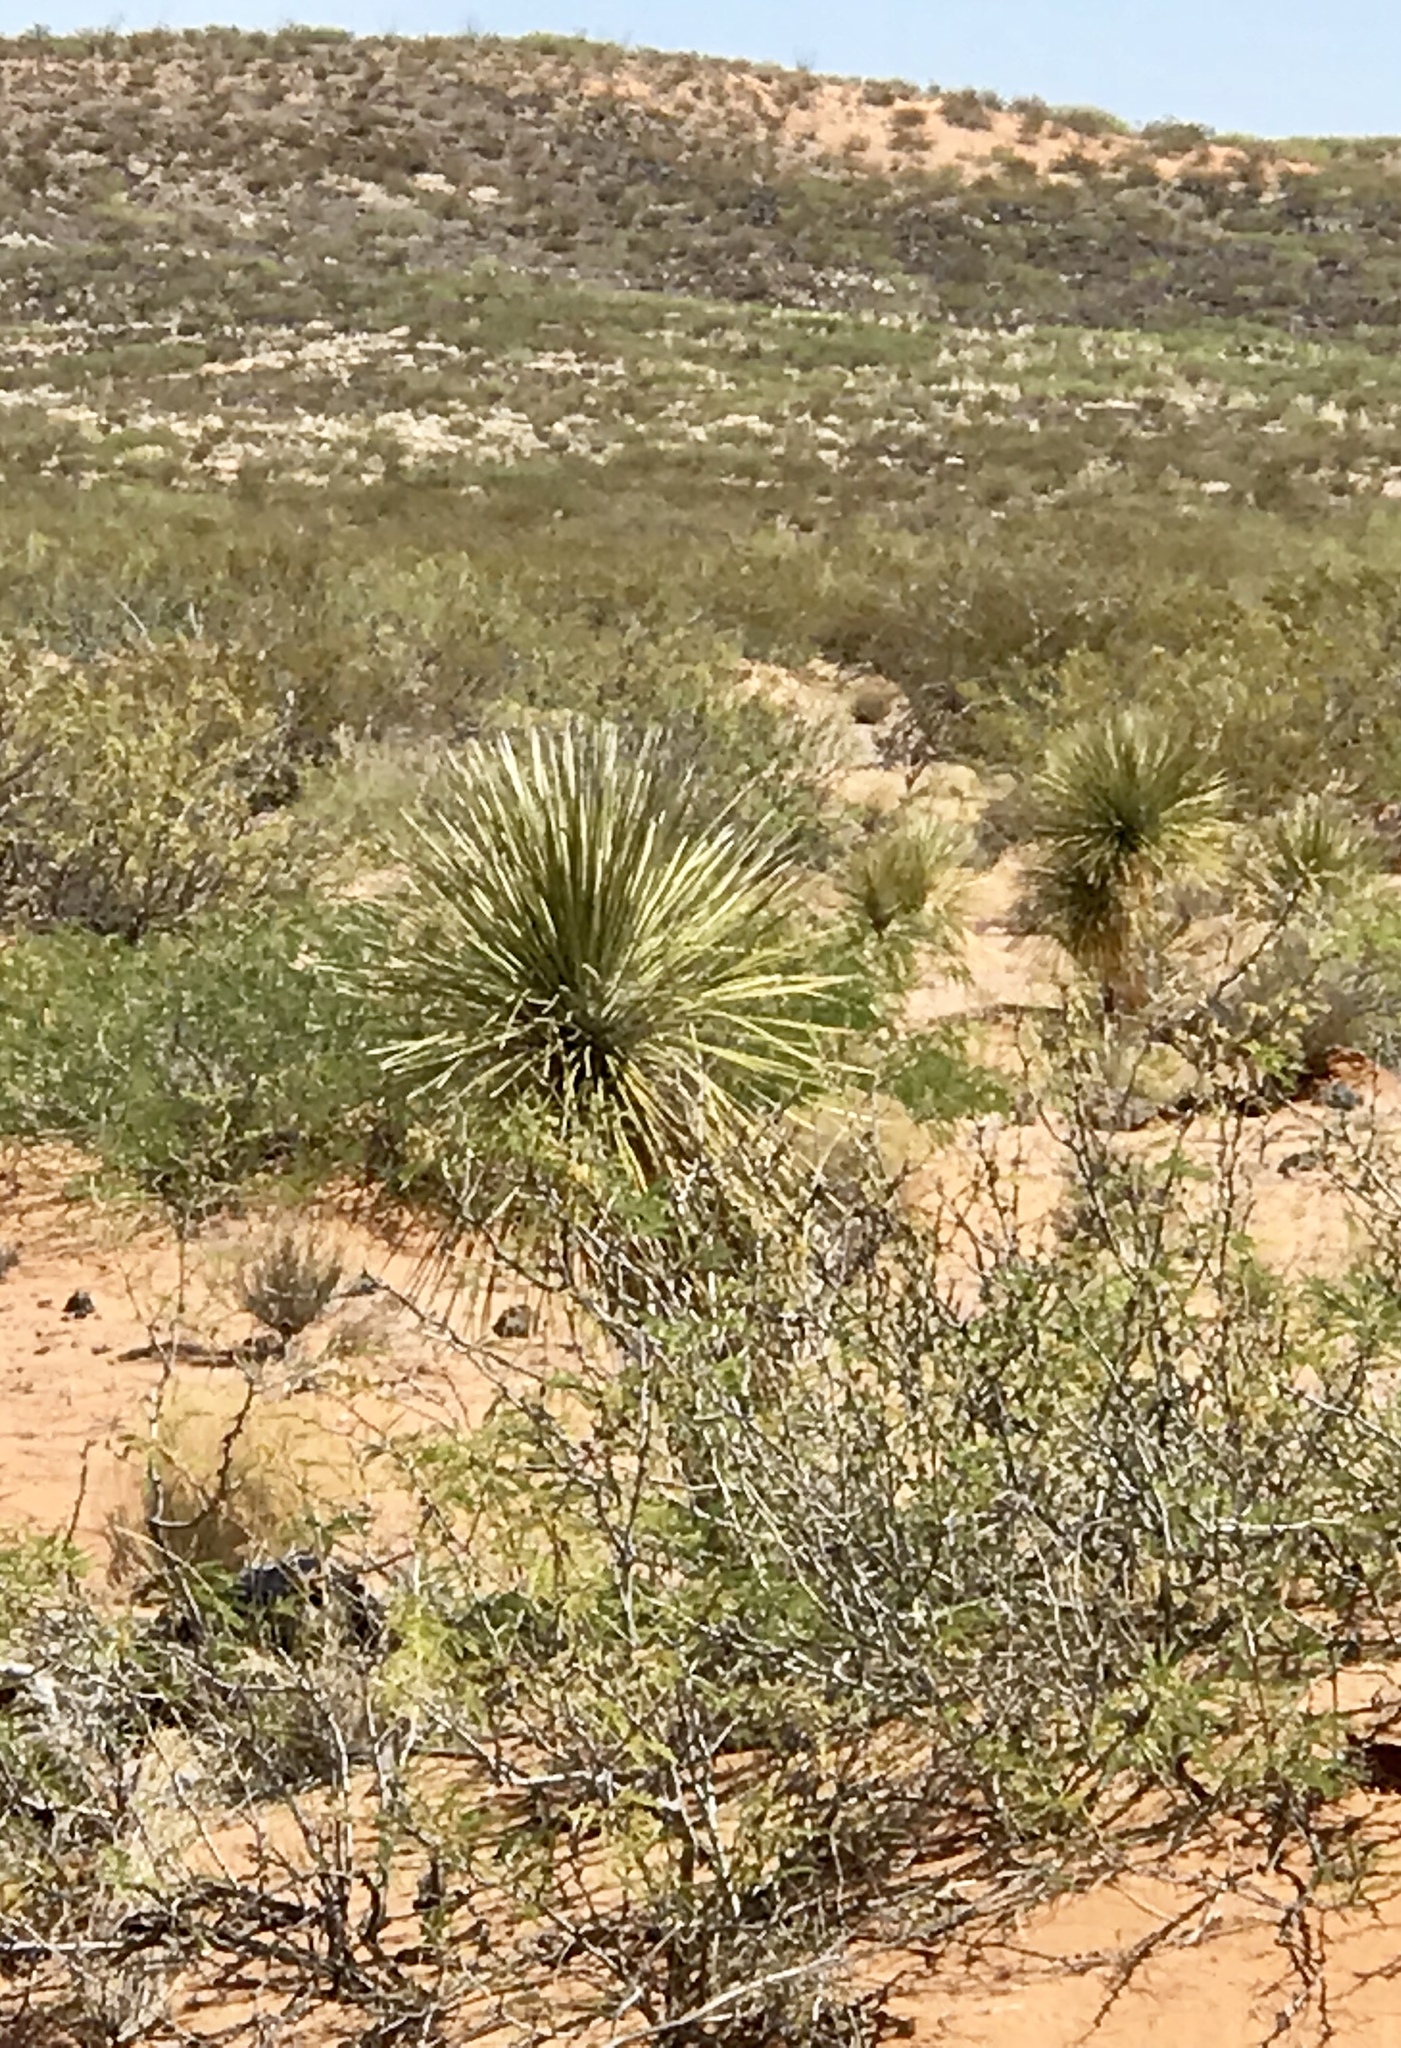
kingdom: Plantae
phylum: Tracheophyta
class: Liliopsida
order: Asparagales
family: Asparagaceae
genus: Yucca
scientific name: Yucca elata
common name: Palmella
